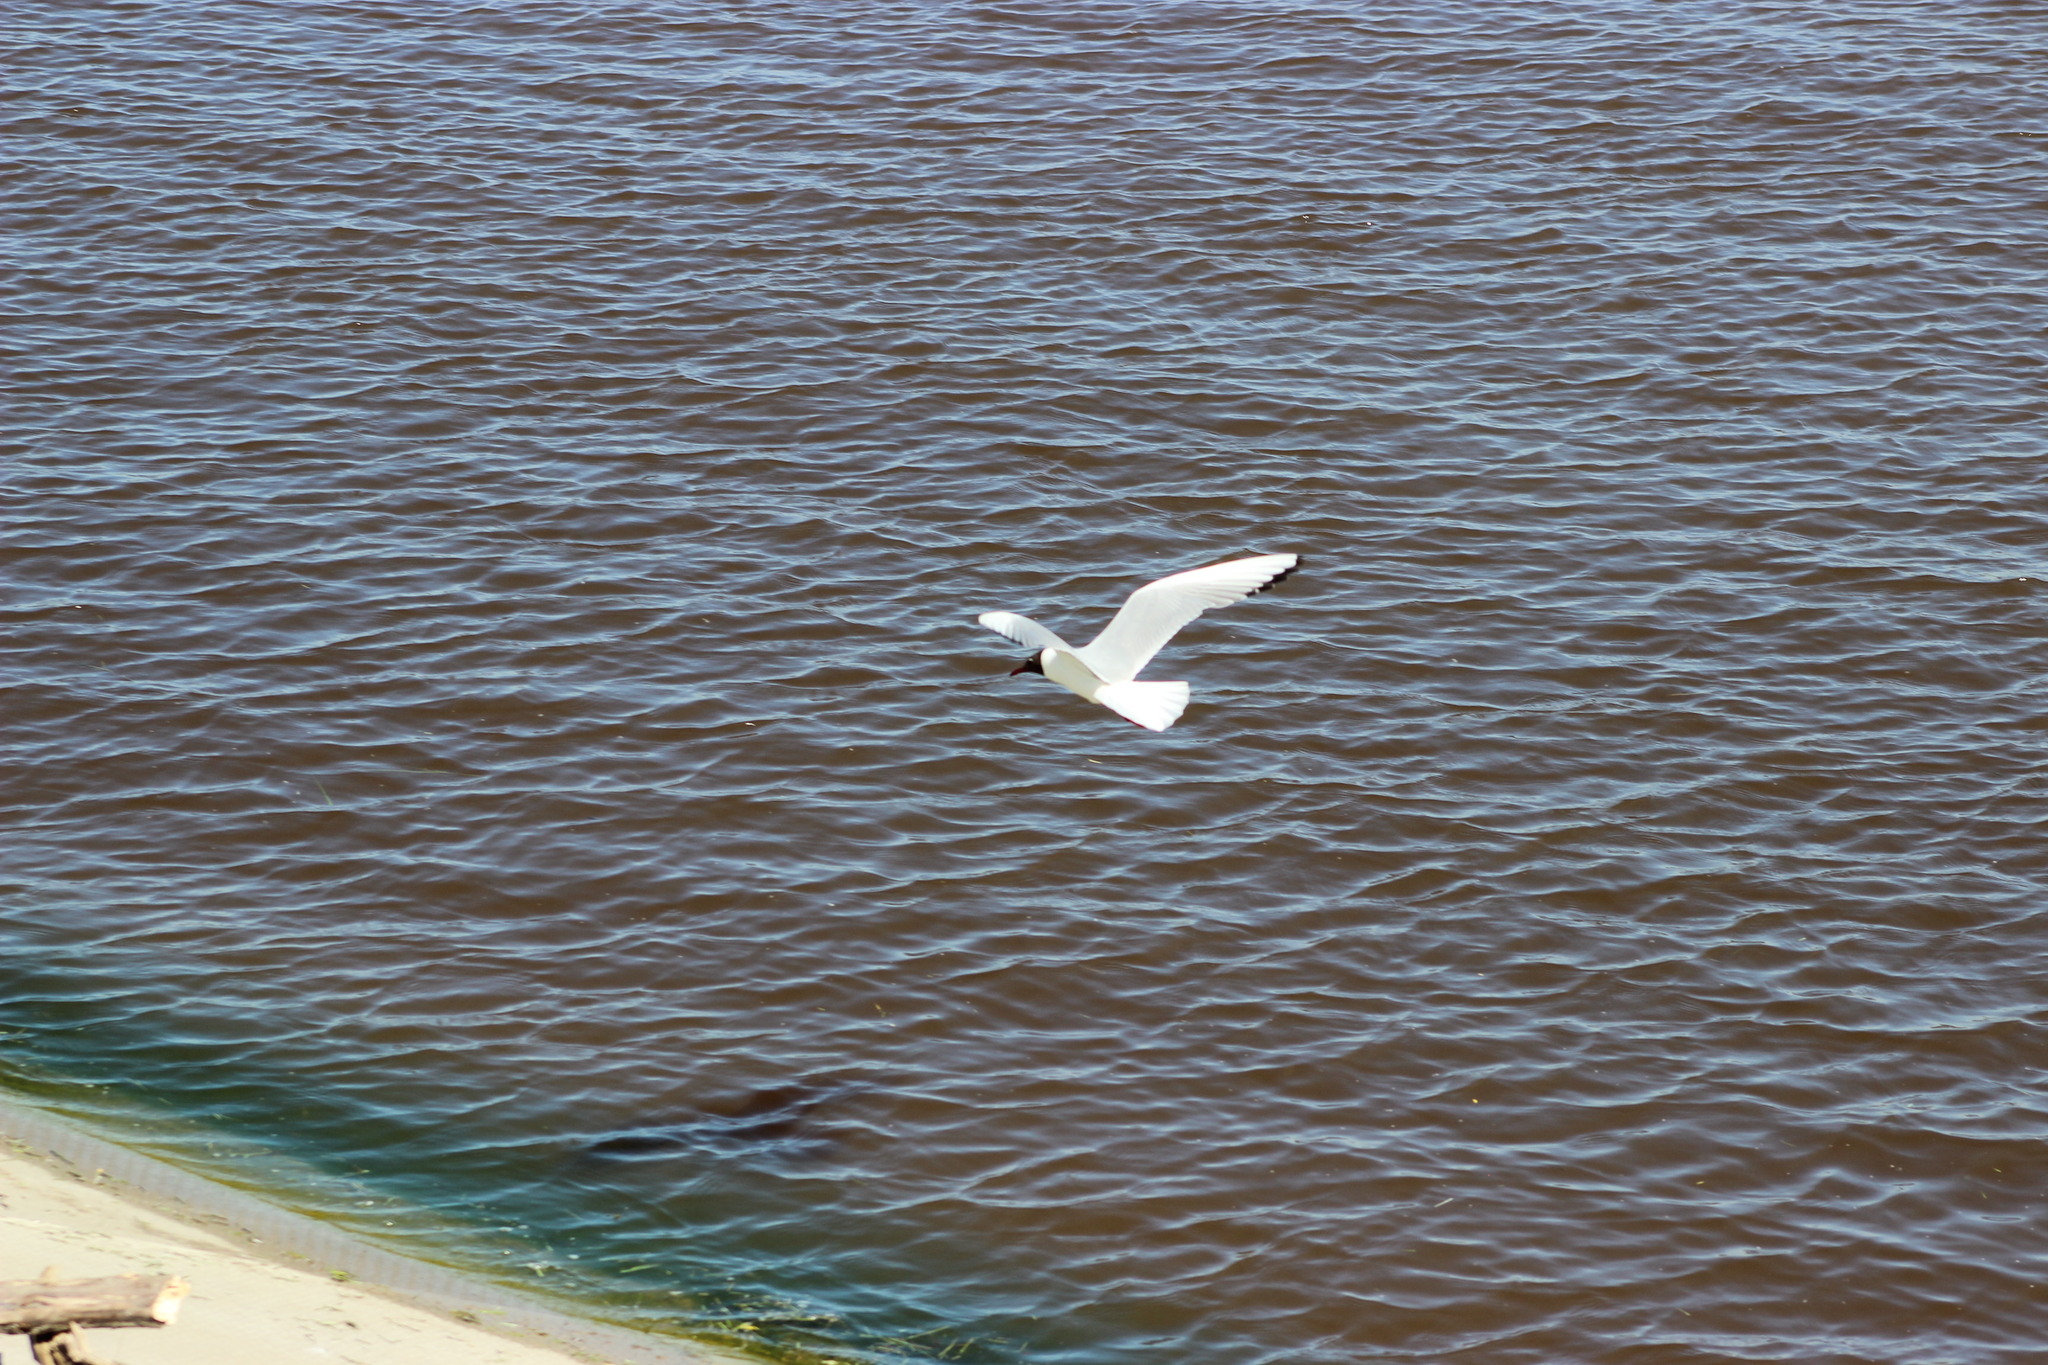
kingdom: Animalia
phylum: Chordata
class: Aves
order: Charadriiformes
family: Laridae
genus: Chroicocephalus
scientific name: Chroicocephalus ridibundus
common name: Black-headed gull
